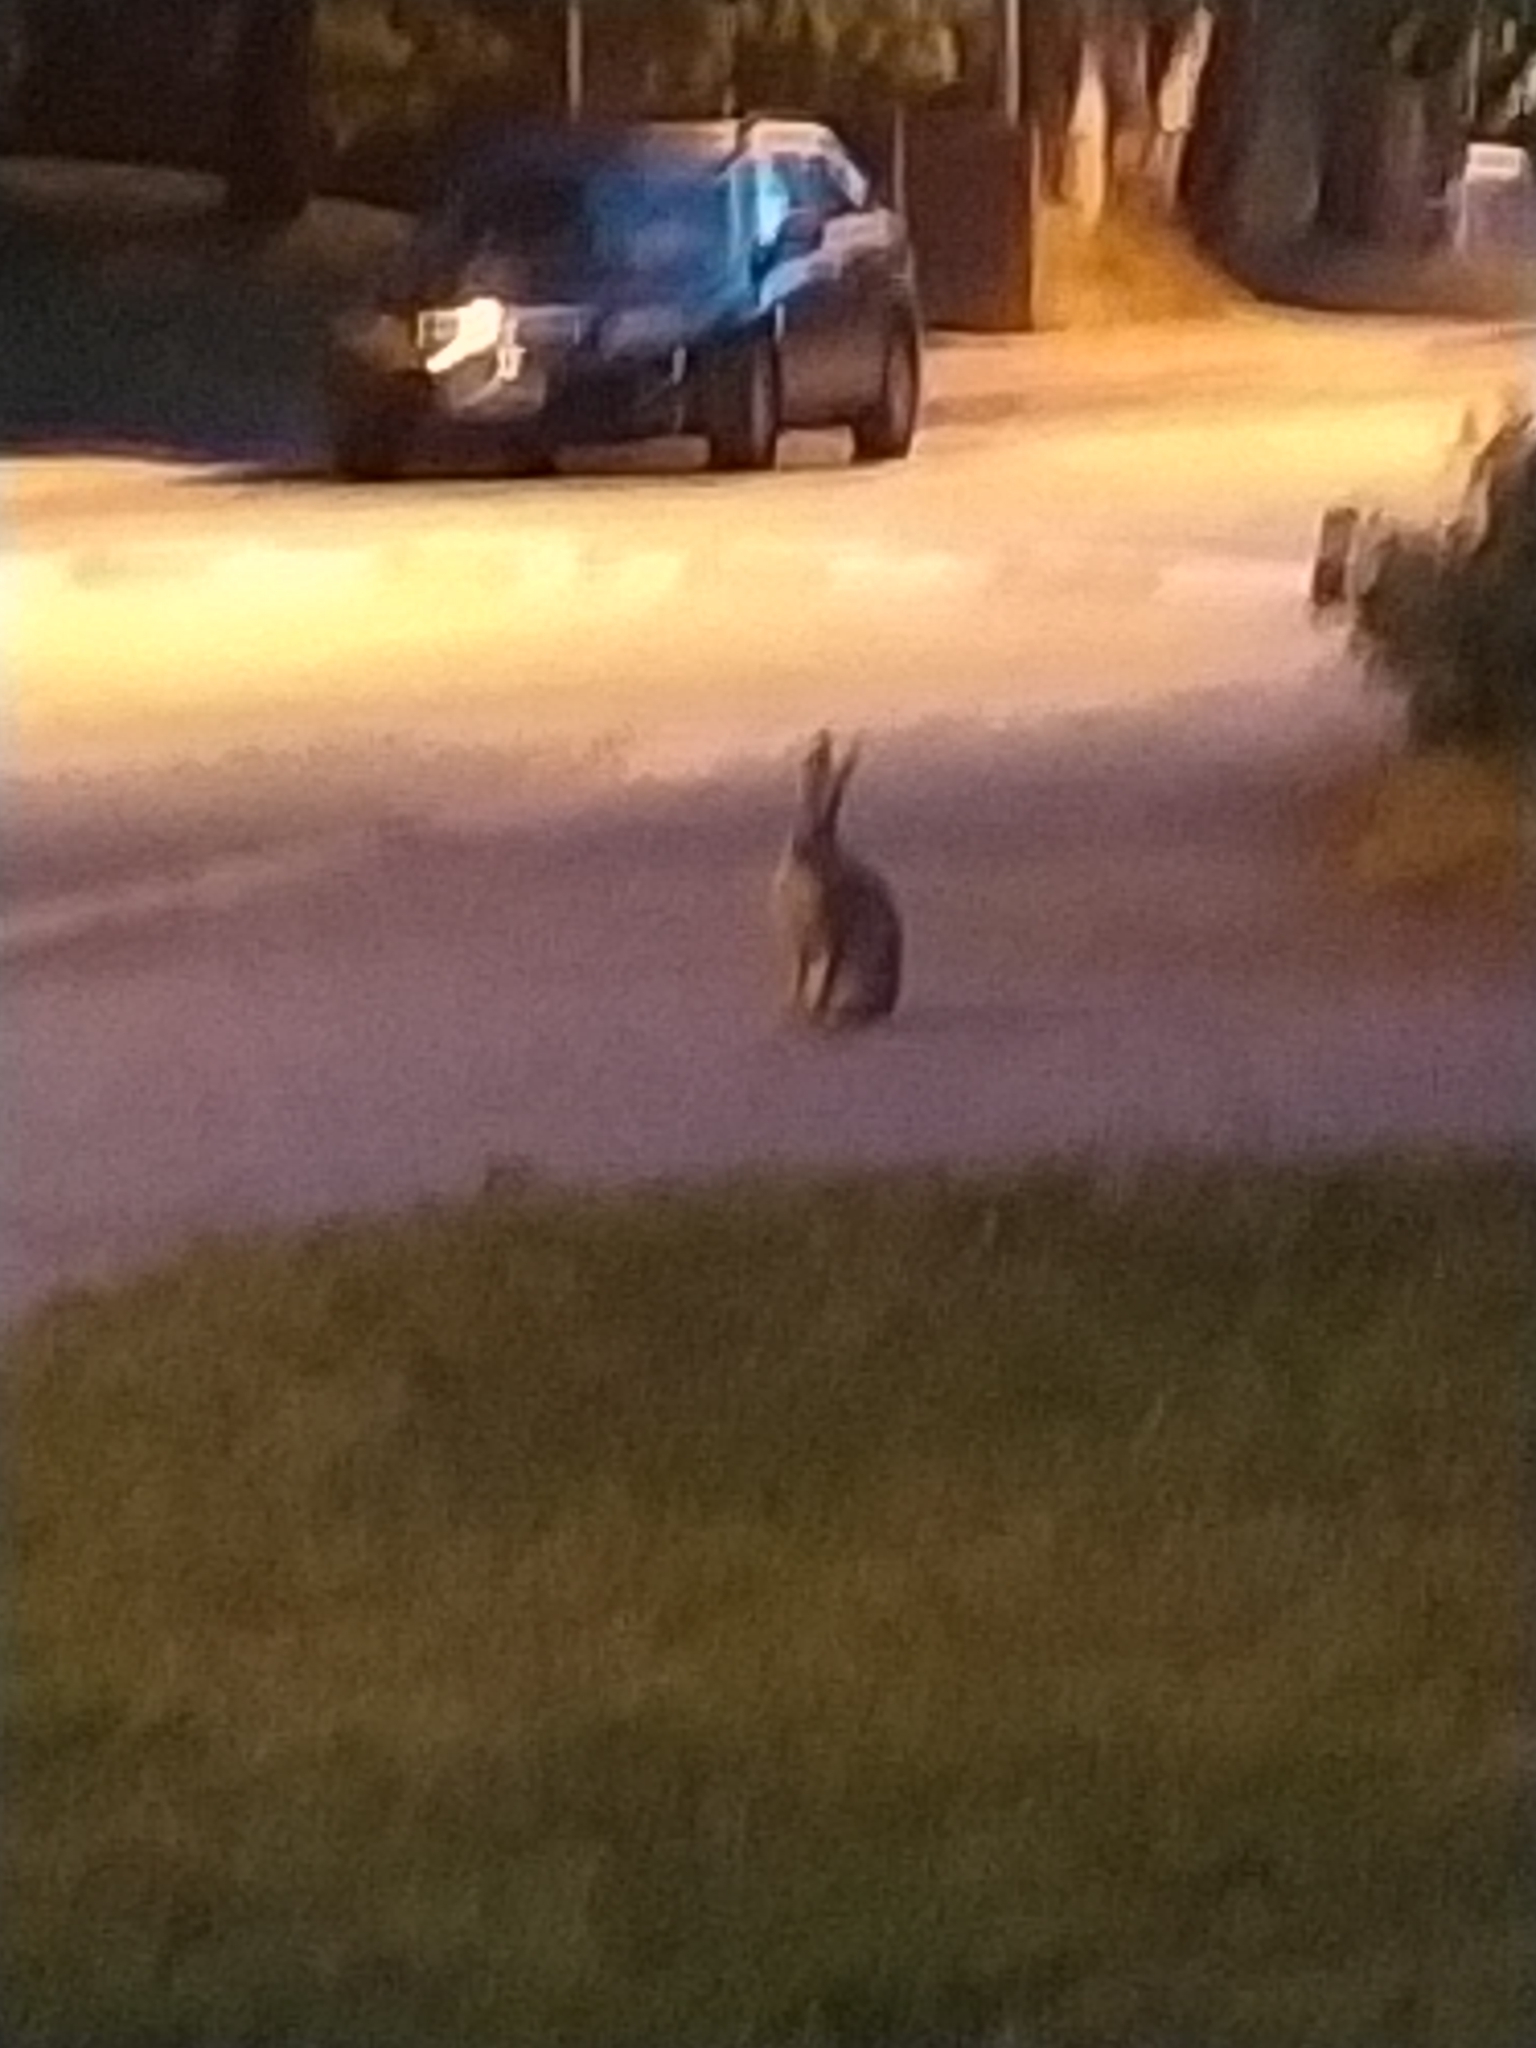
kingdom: Animalia
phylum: Chordata
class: Mammalia
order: Lagomorpha
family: Leporidae
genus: Lepus
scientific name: Lepus europaeus
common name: European hare
